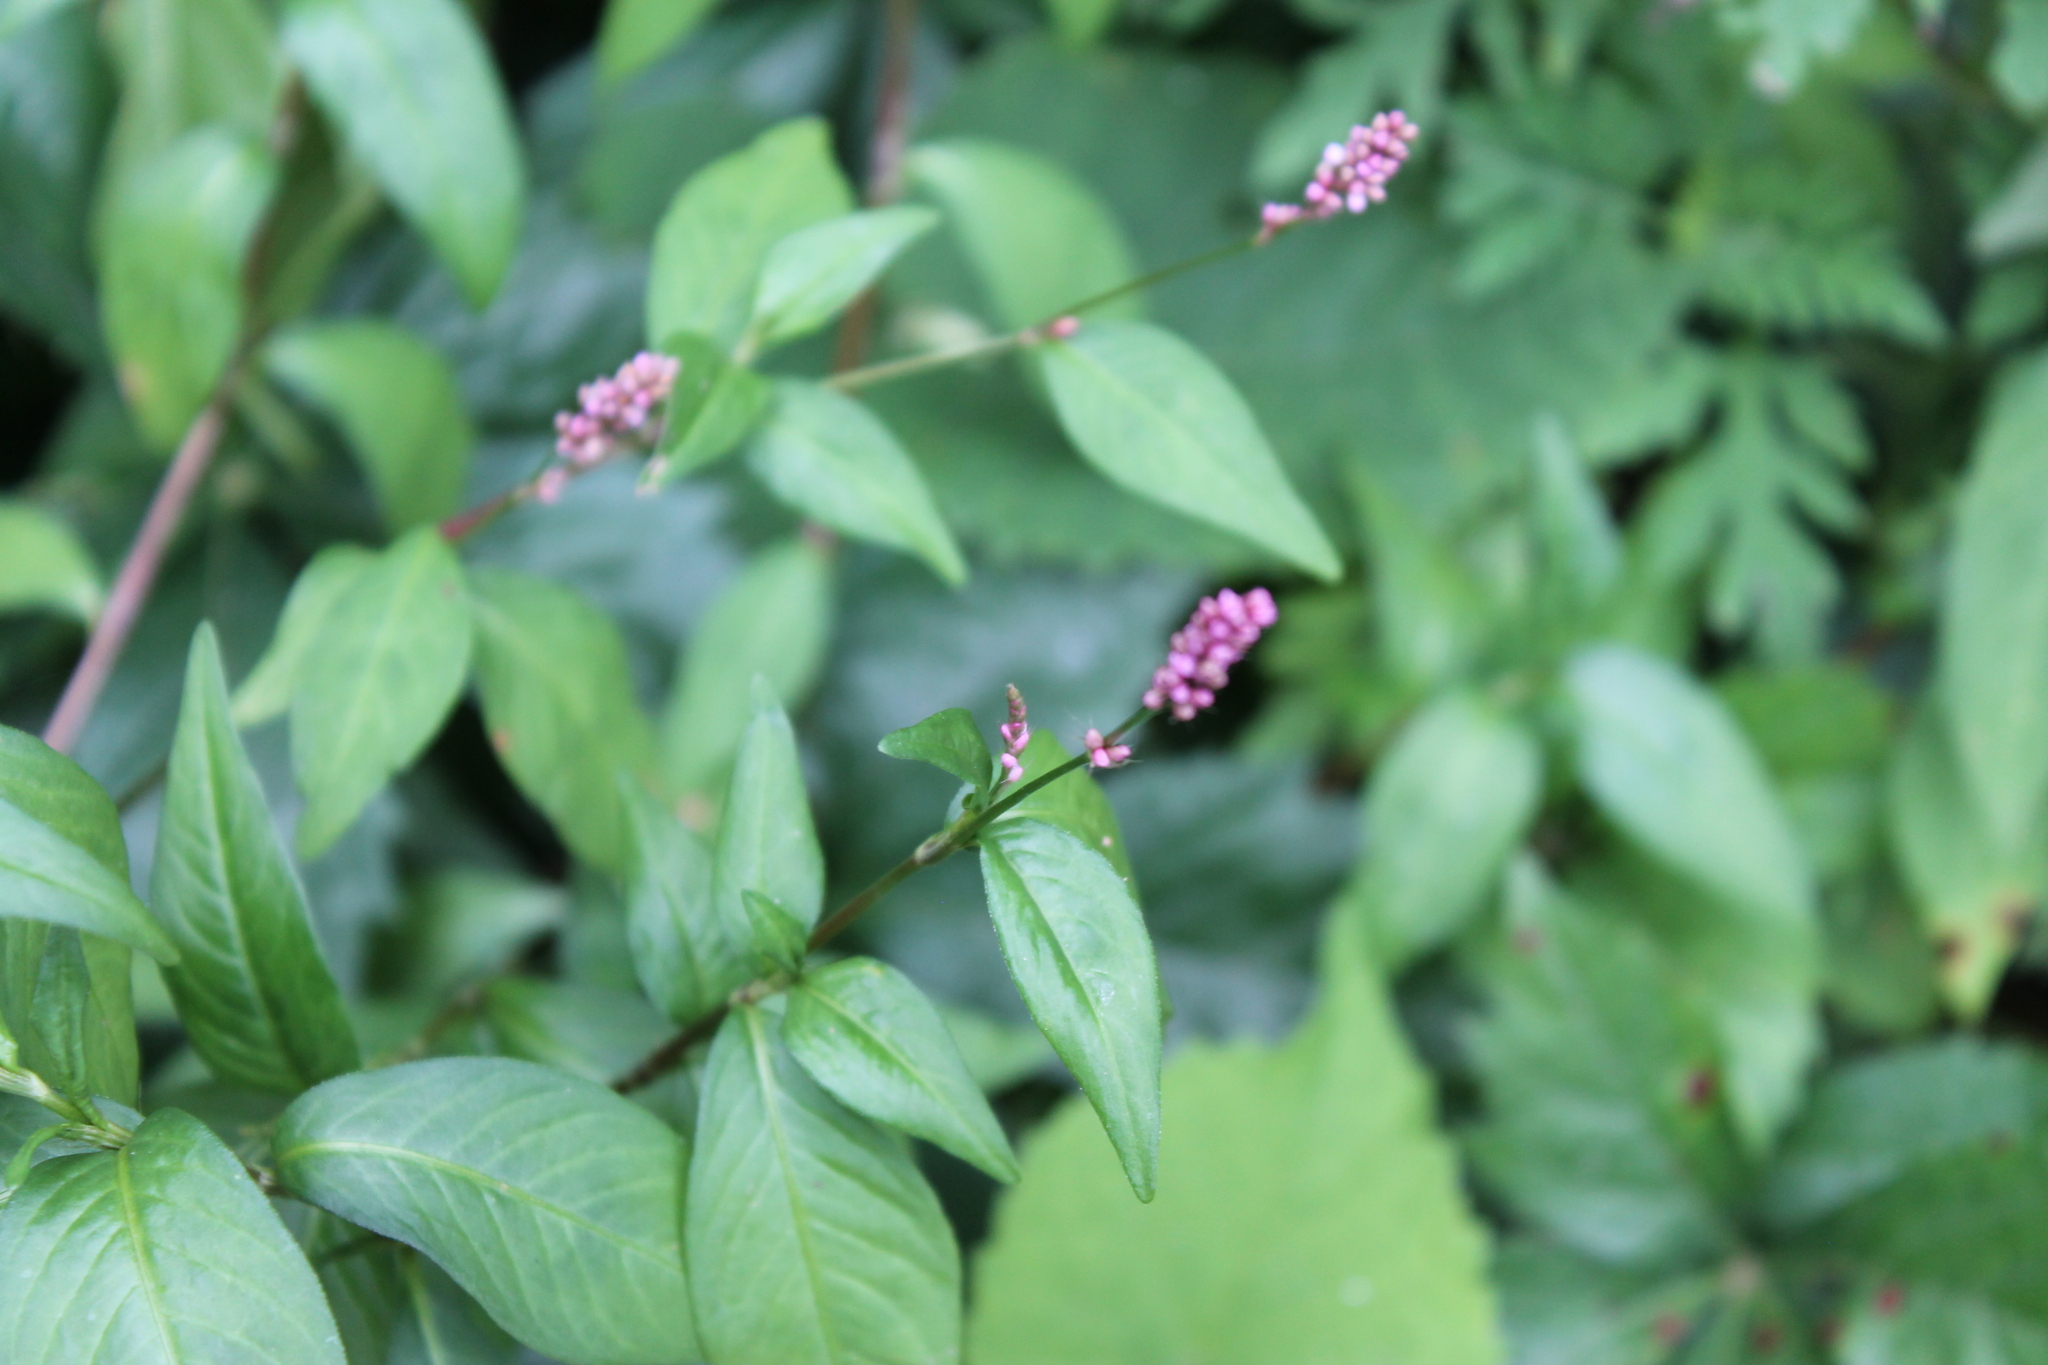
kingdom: Plantae
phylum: Tracheophyta
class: Magnoliopsida
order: Caryophyllales
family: Polygonaceae
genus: Persicaria
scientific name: Persicaria longiseta
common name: Bristly lady's-thumb
